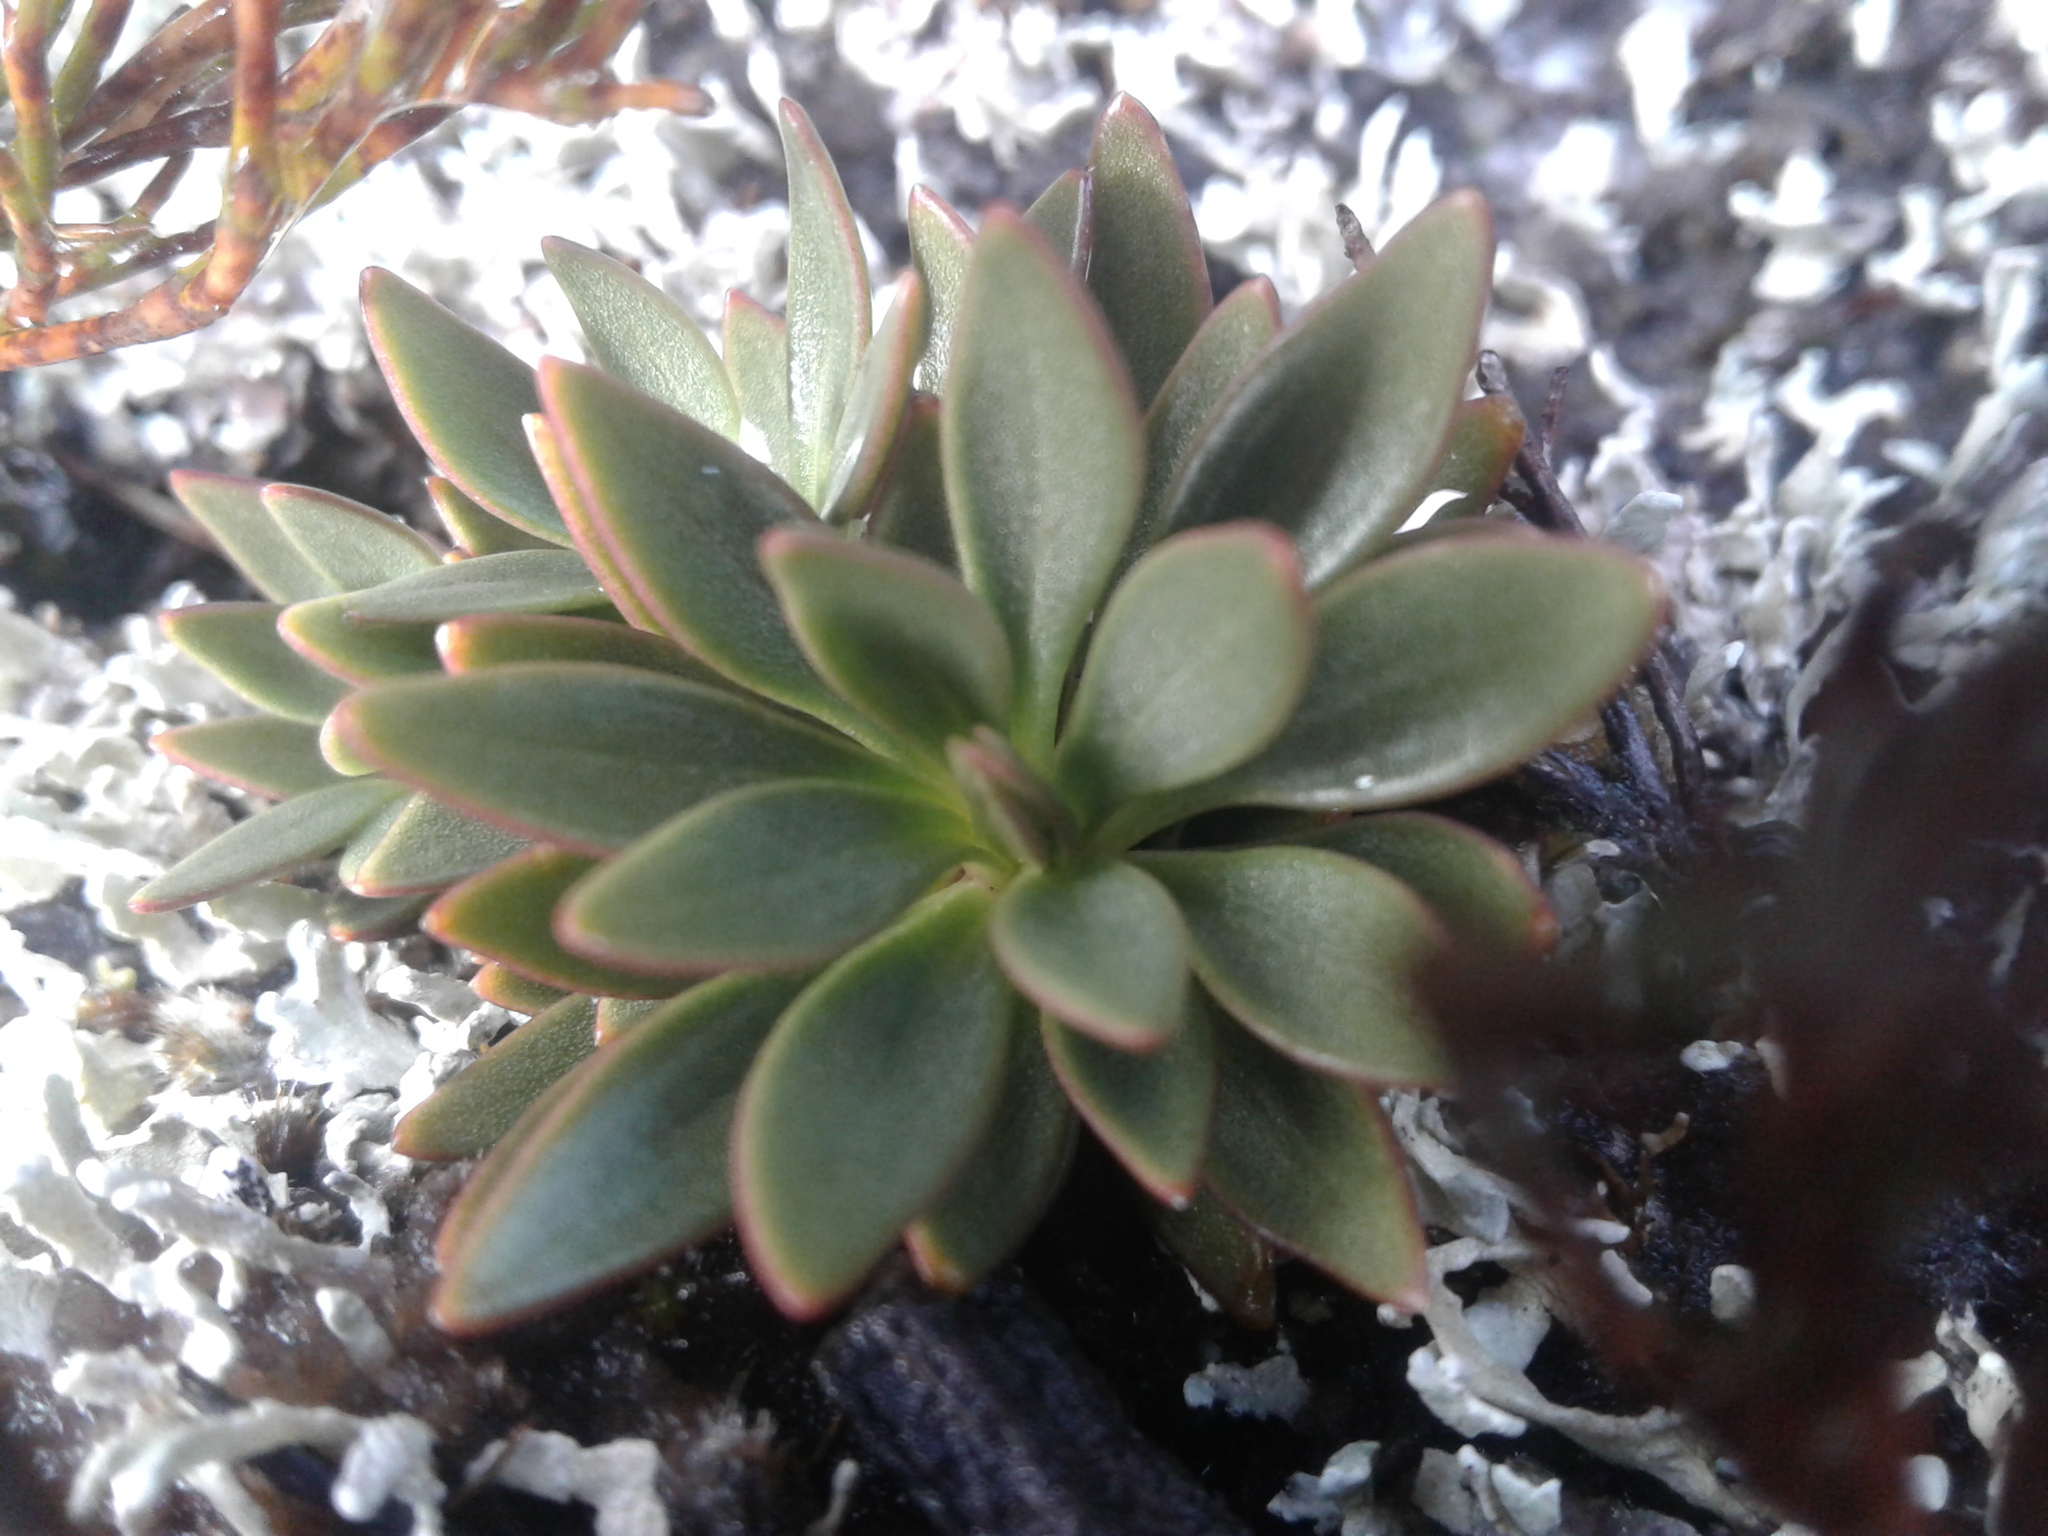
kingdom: Plantae
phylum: Tracheophyta
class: Magnoliopsida
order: Gentianales
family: Gentianaceae
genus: Gentianella
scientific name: Gentianella montana
